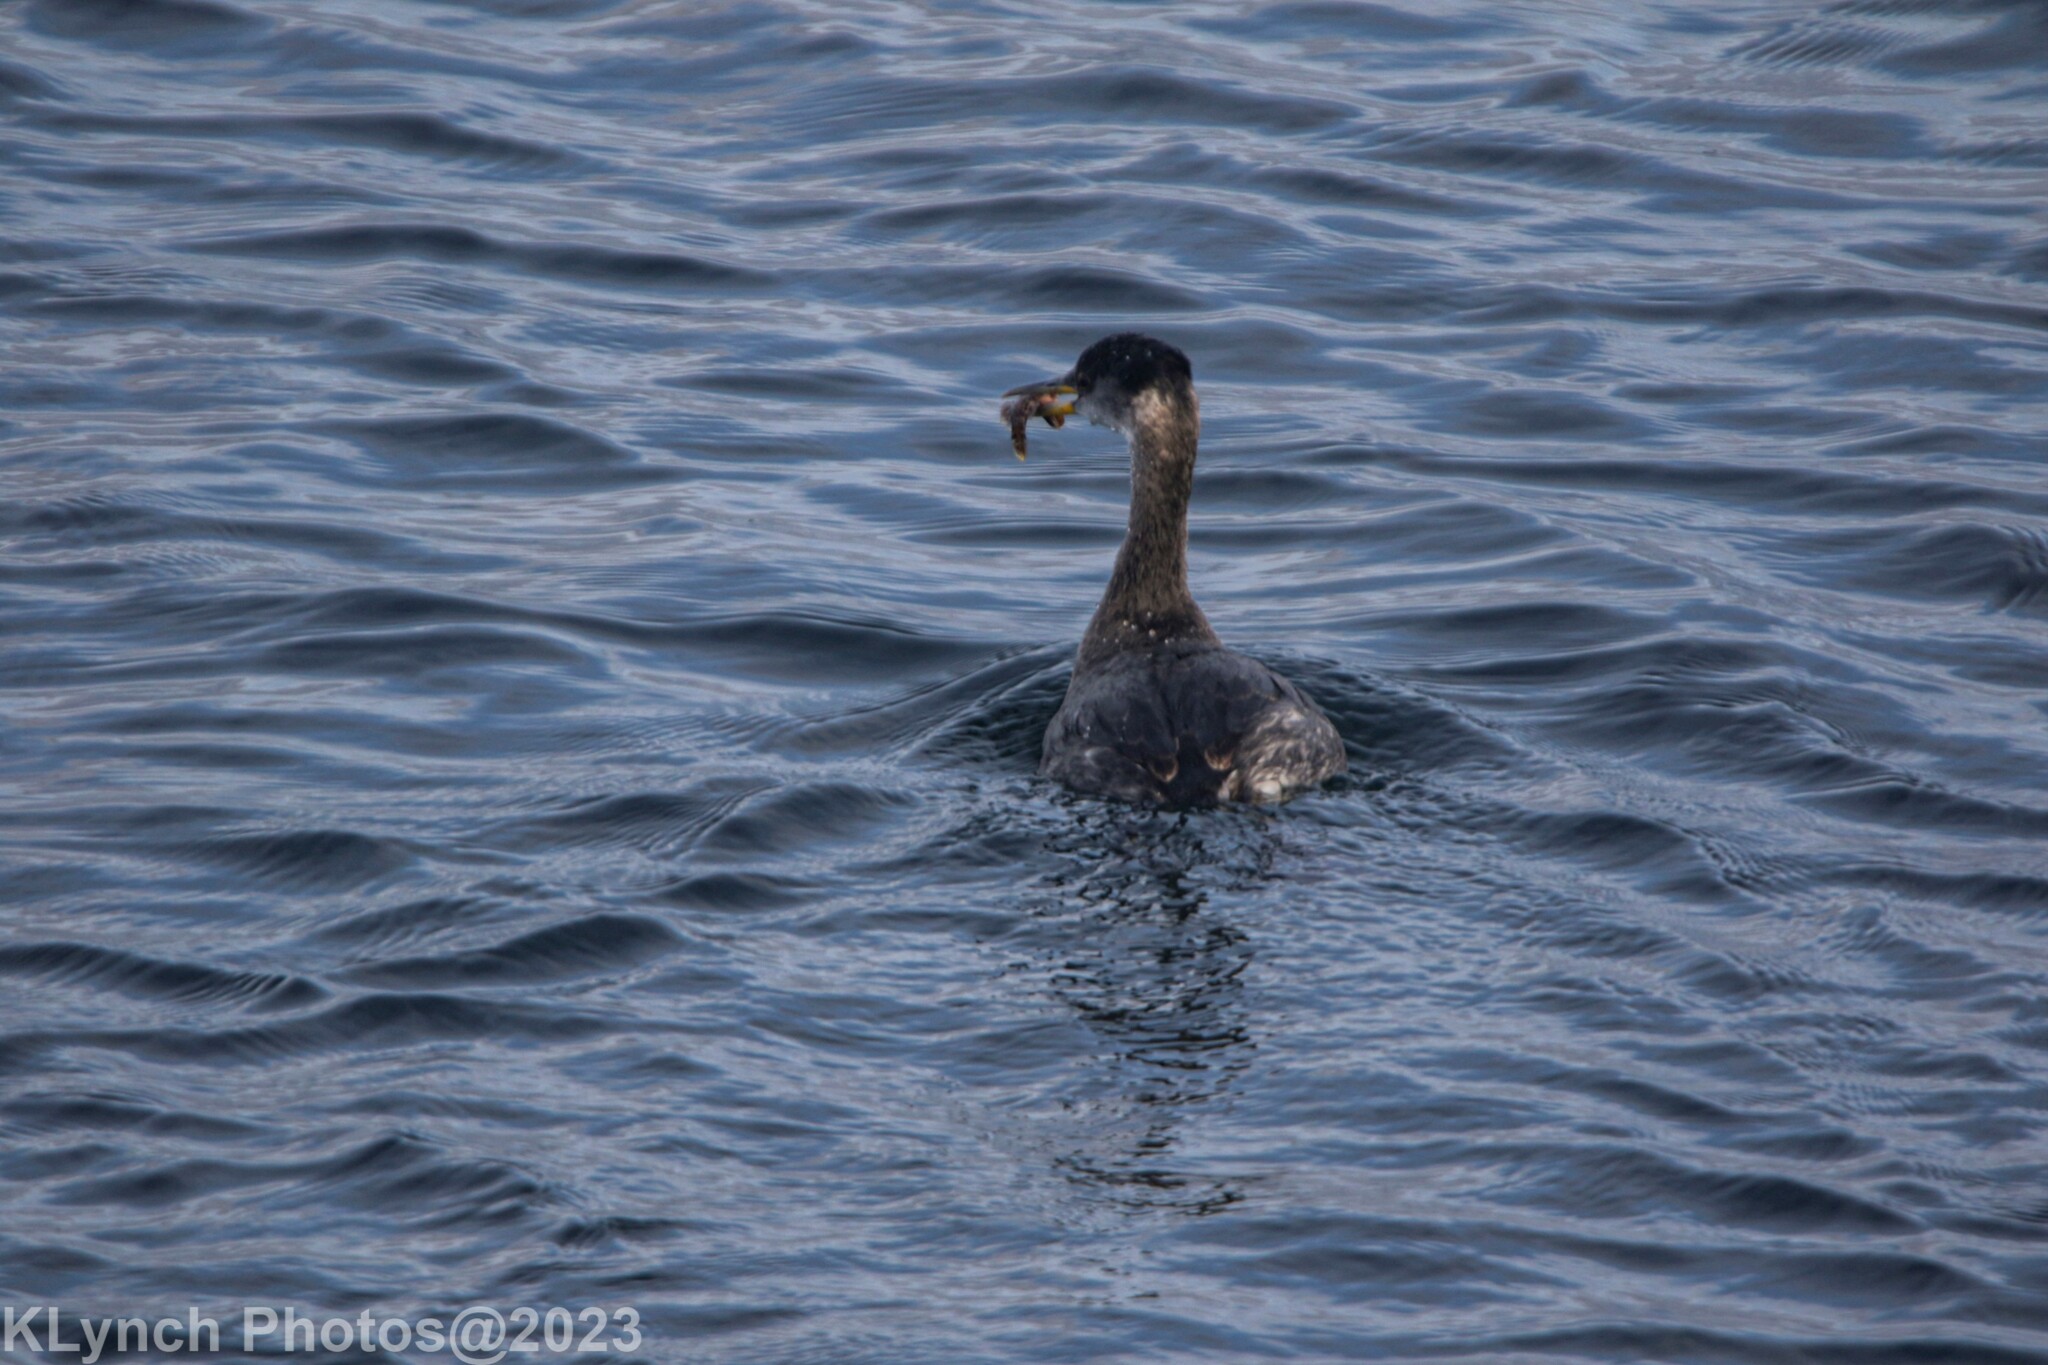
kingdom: Animalia
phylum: Chordata
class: Aves
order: Podicipediformes
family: Podicipedidae
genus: Podiceps
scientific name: Podiceps grisegena
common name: Red-necked grebe
